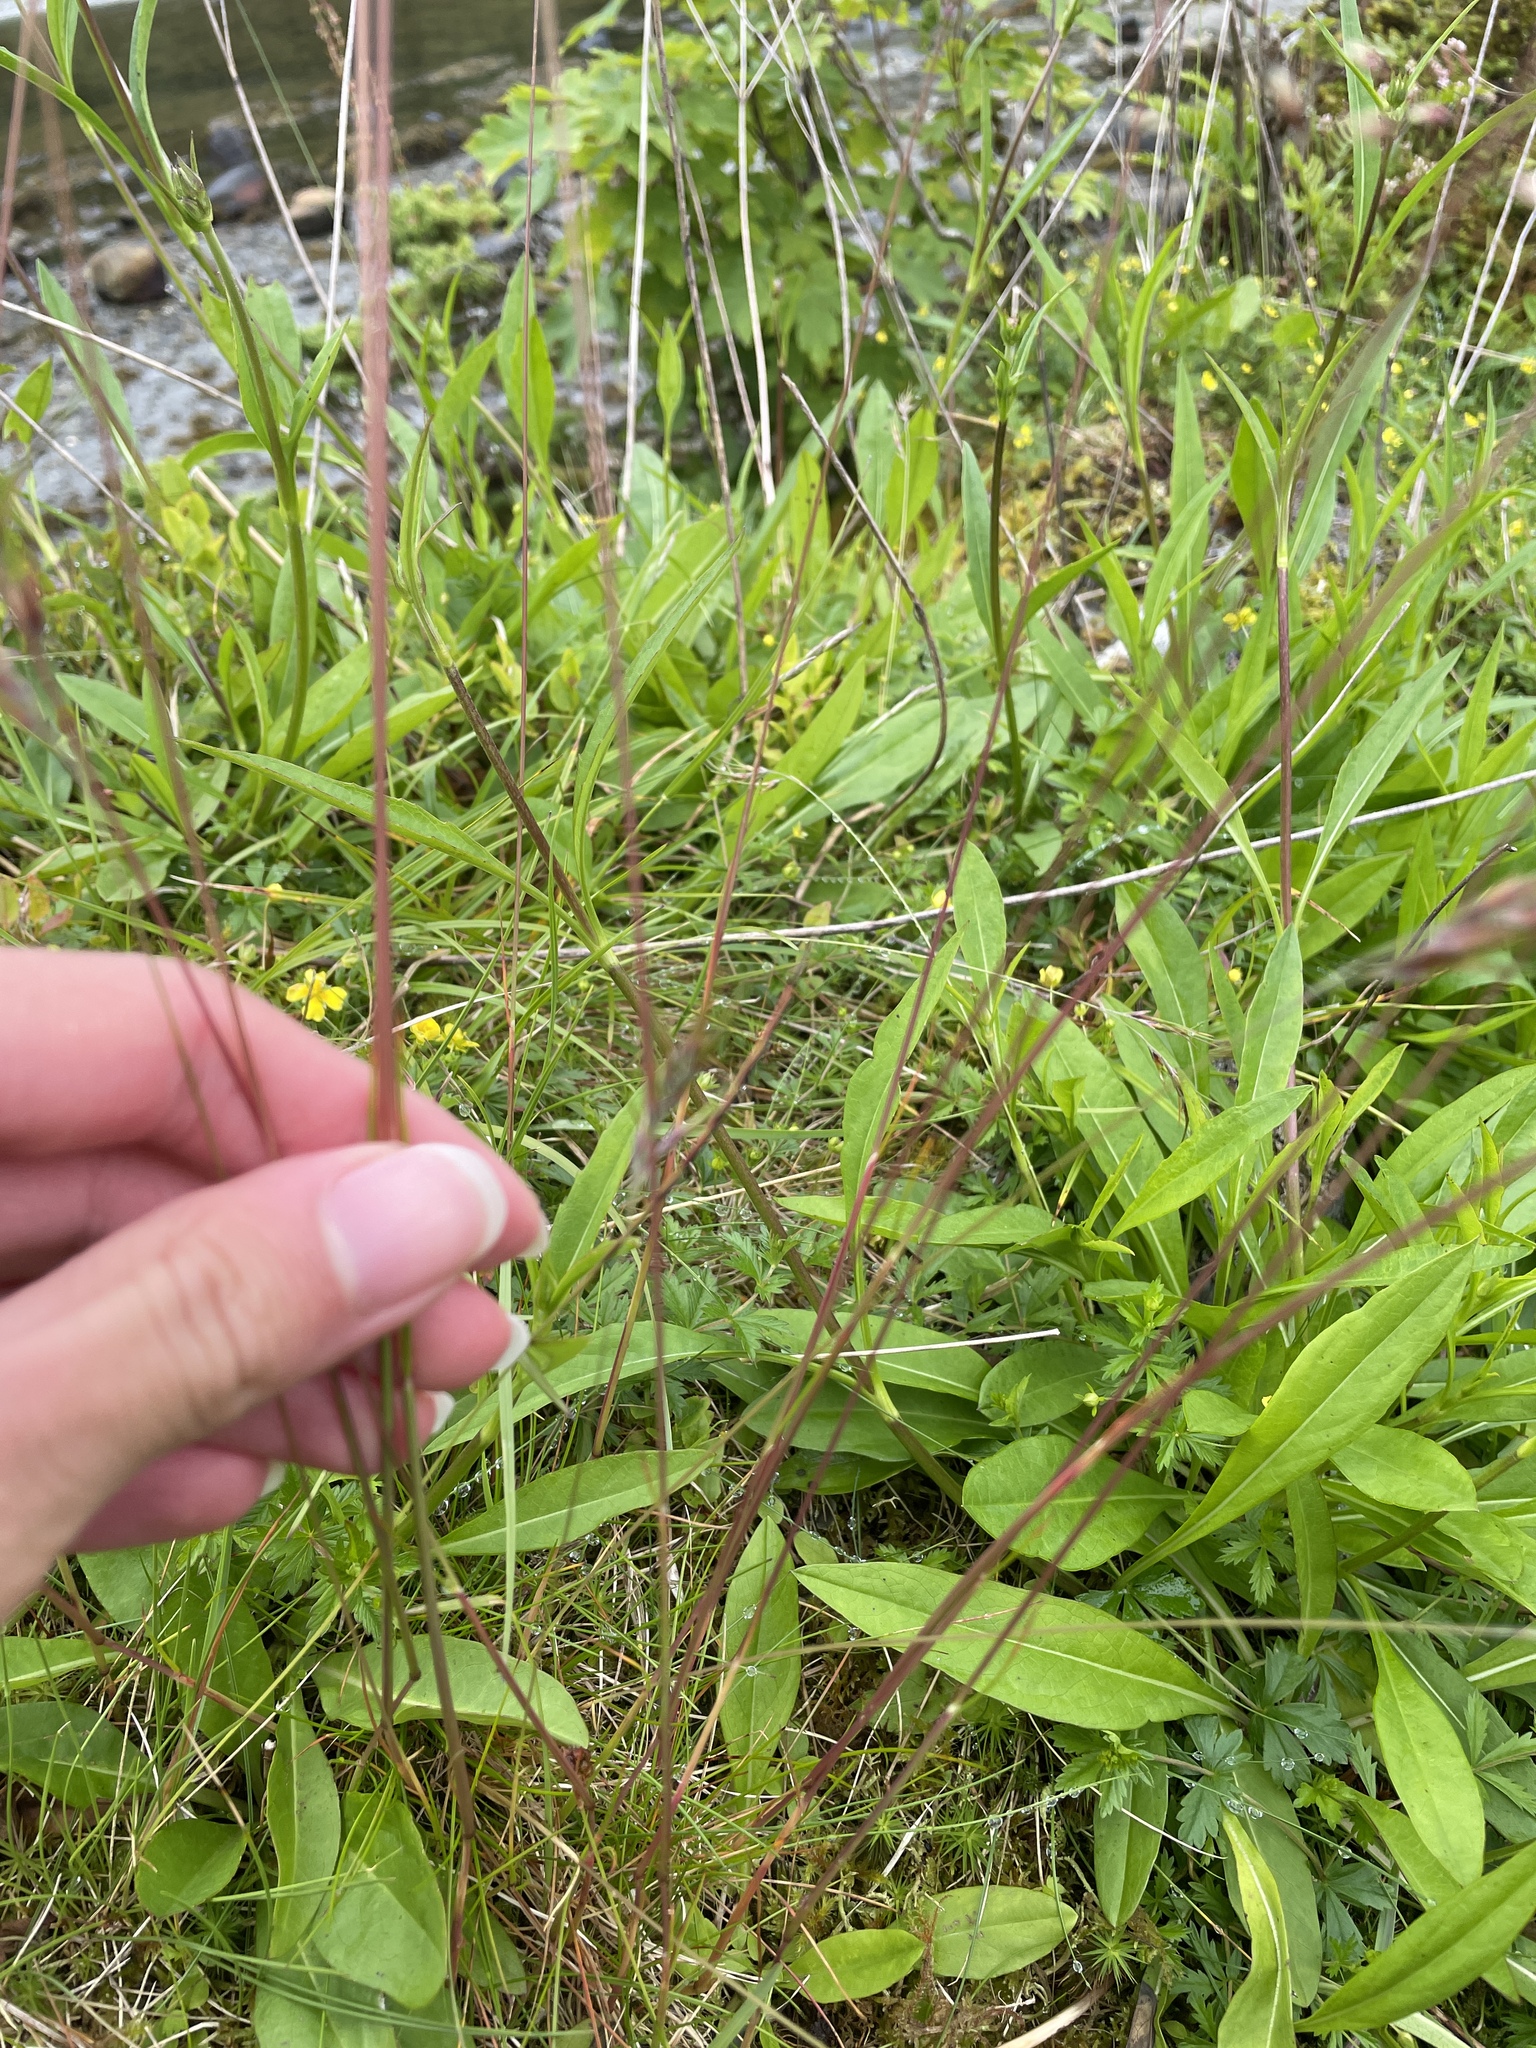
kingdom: Plantae
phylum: Tracheophyta
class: Liliopsida
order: Poales
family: Poaceae
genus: Avenella
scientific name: Avenella flexuosa
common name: Wavy hairgrass
